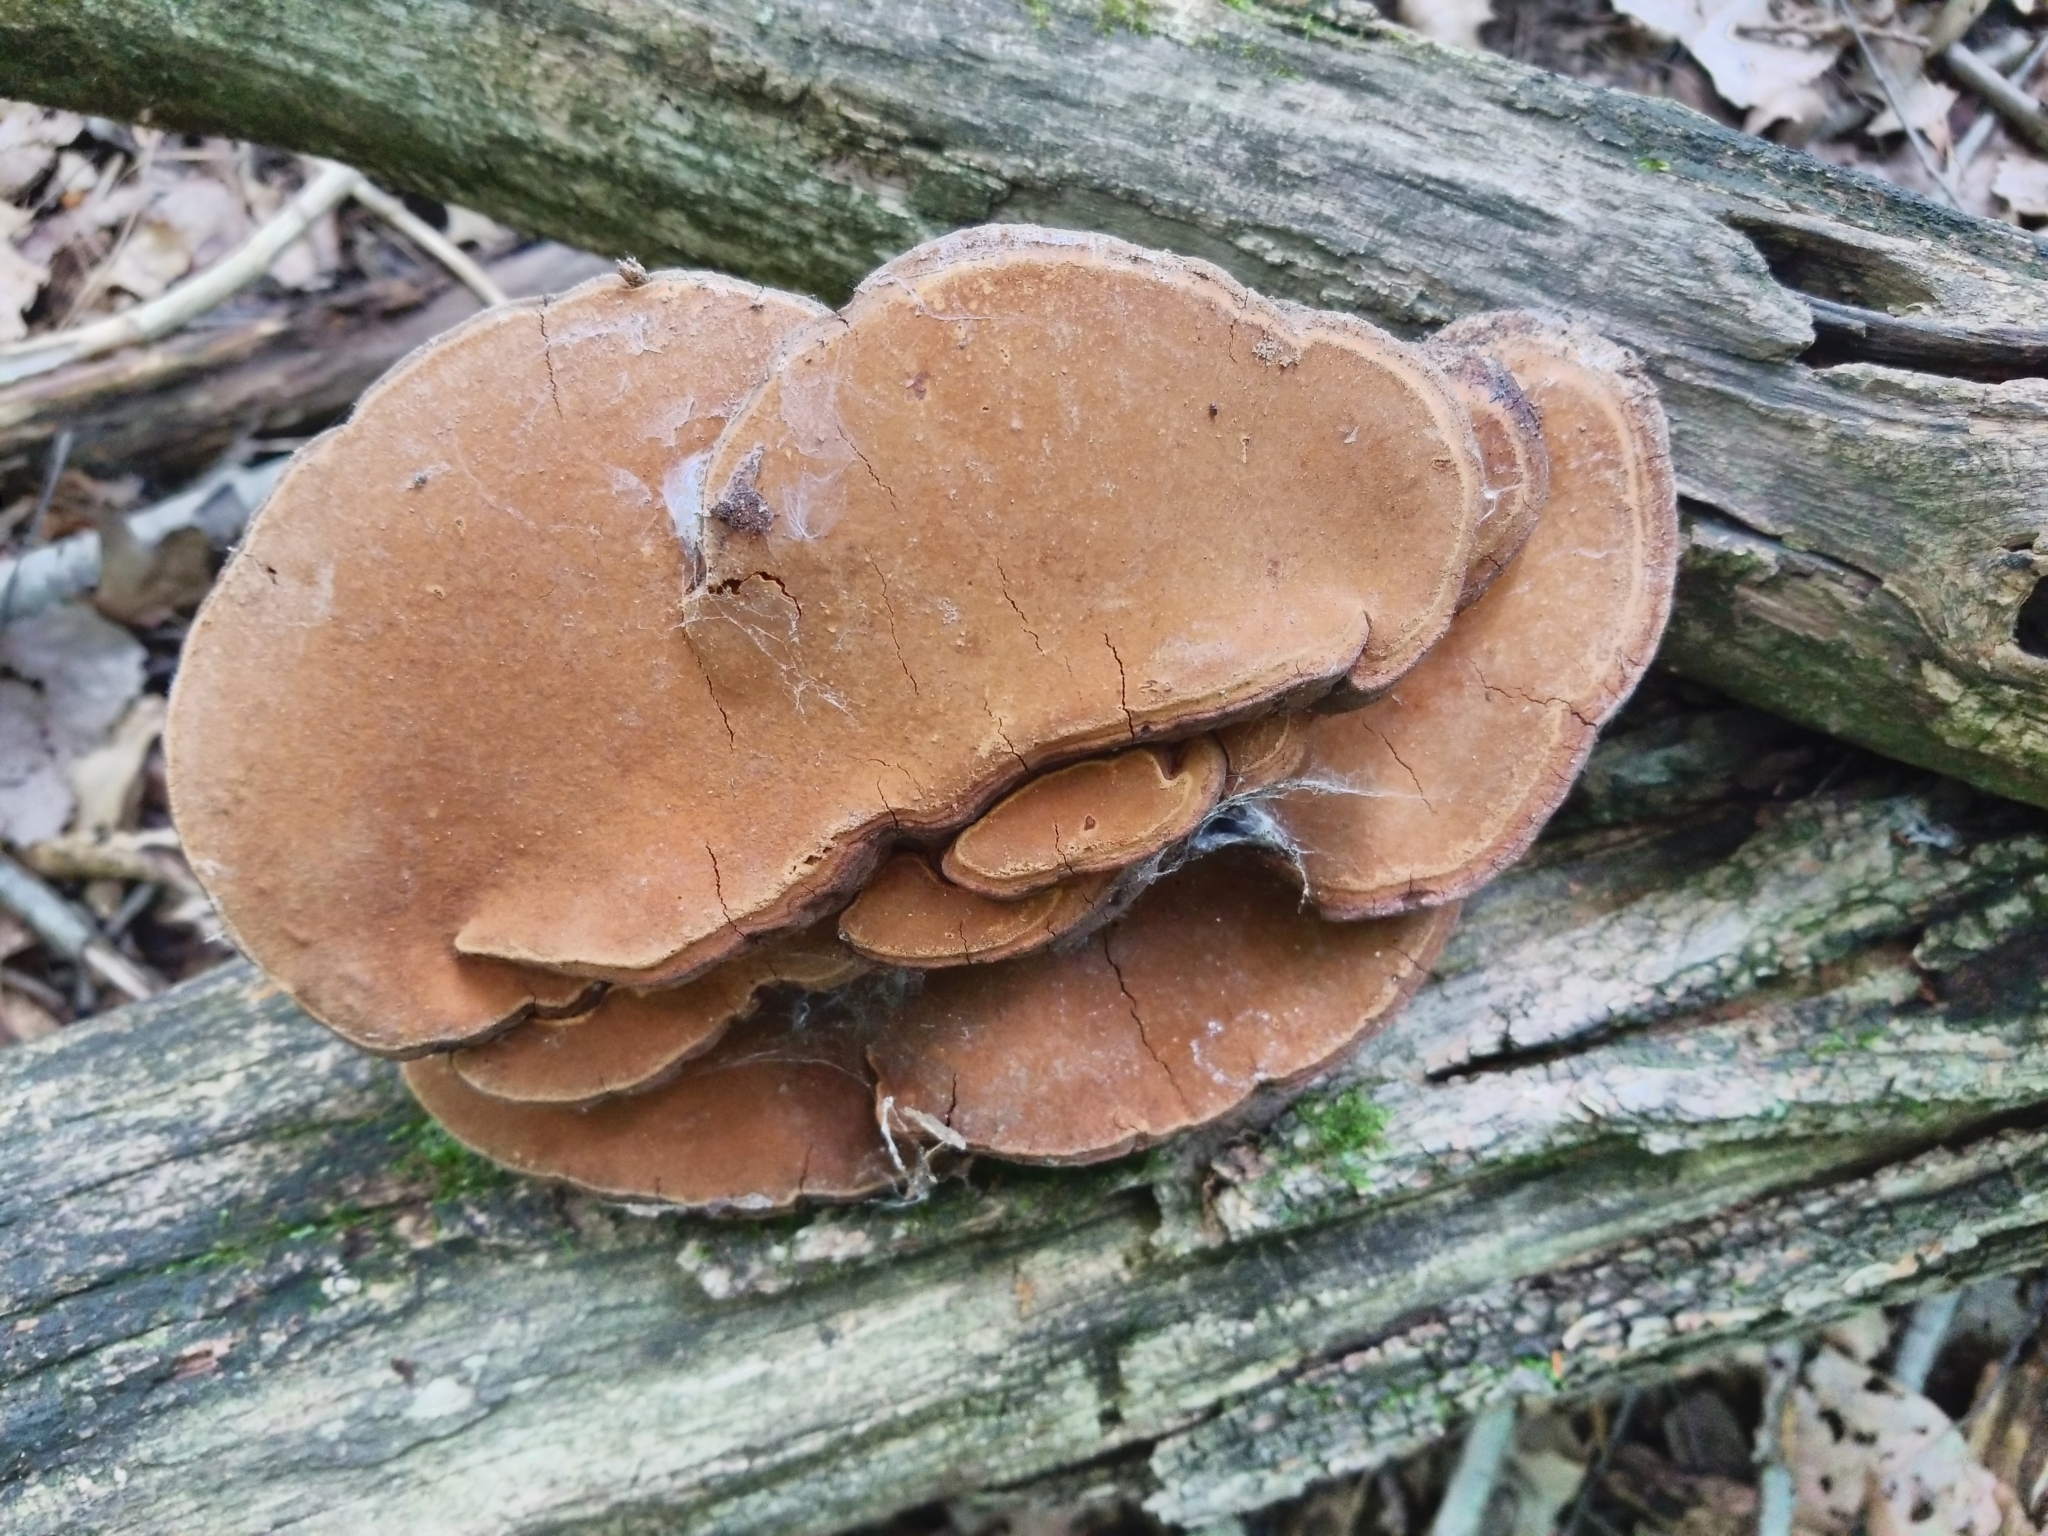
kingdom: Fungi
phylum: Basidiomycota
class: Agaricomycetes
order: Hymenochaetales
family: Hymenochaetaceae
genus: Phellinus
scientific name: Phellinus robiniae
